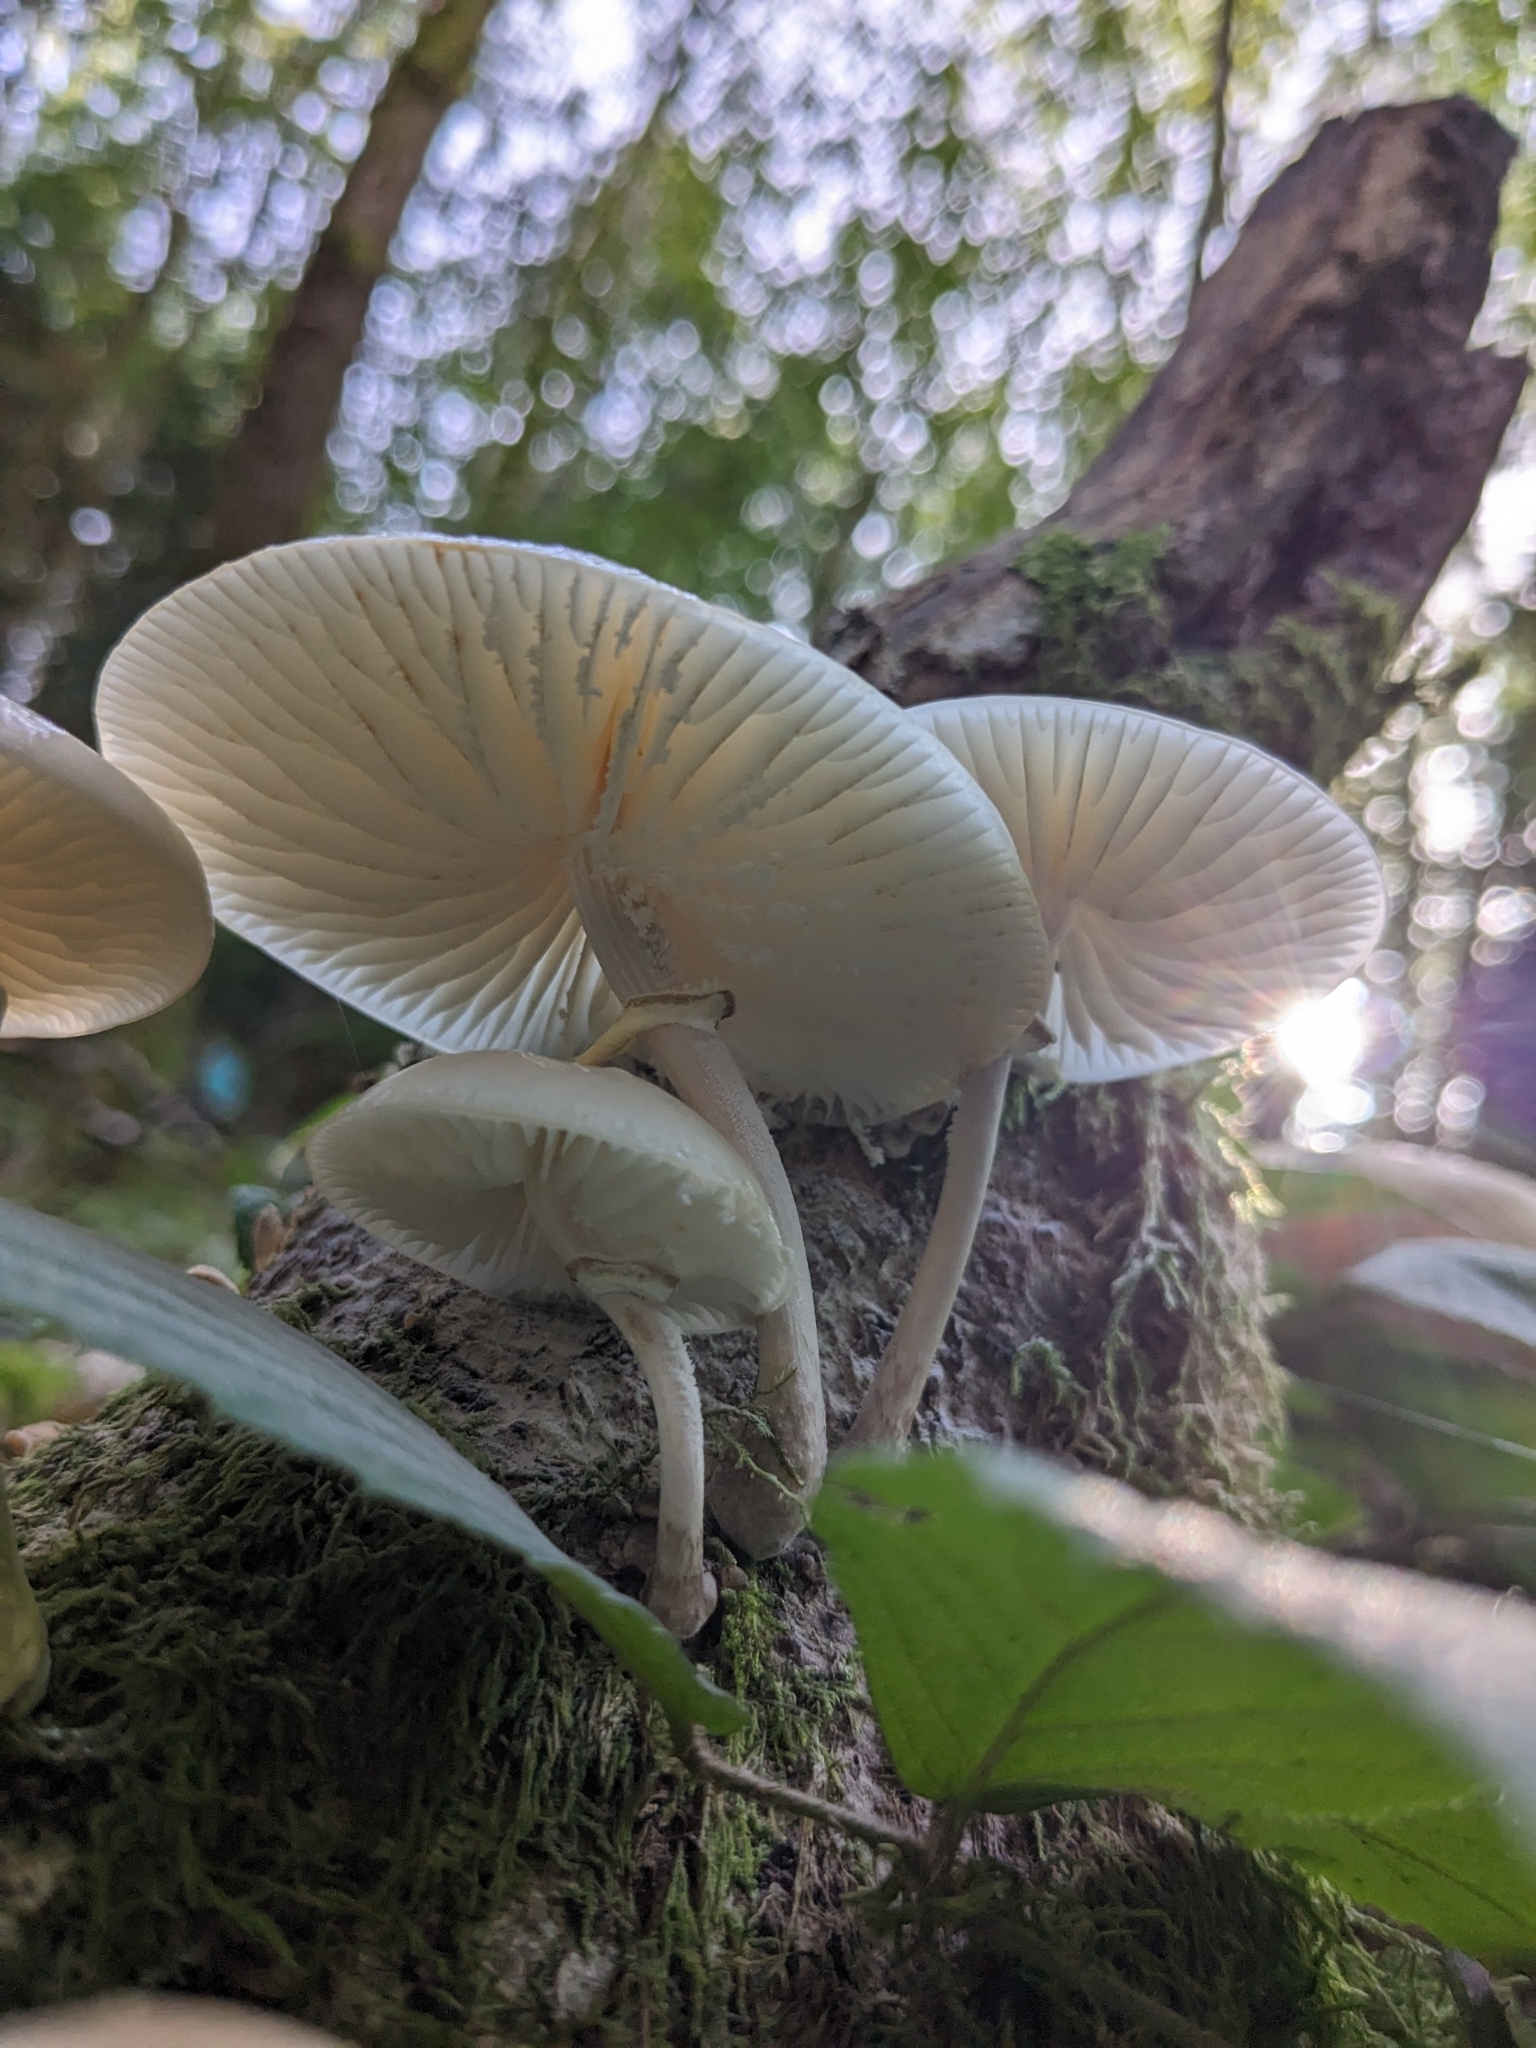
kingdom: Fungi
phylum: Basidiomycota
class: Agaricomycetes
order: Agaricales
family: Physalacriaceae
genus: Mucidula
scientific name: Mucidula mucida
